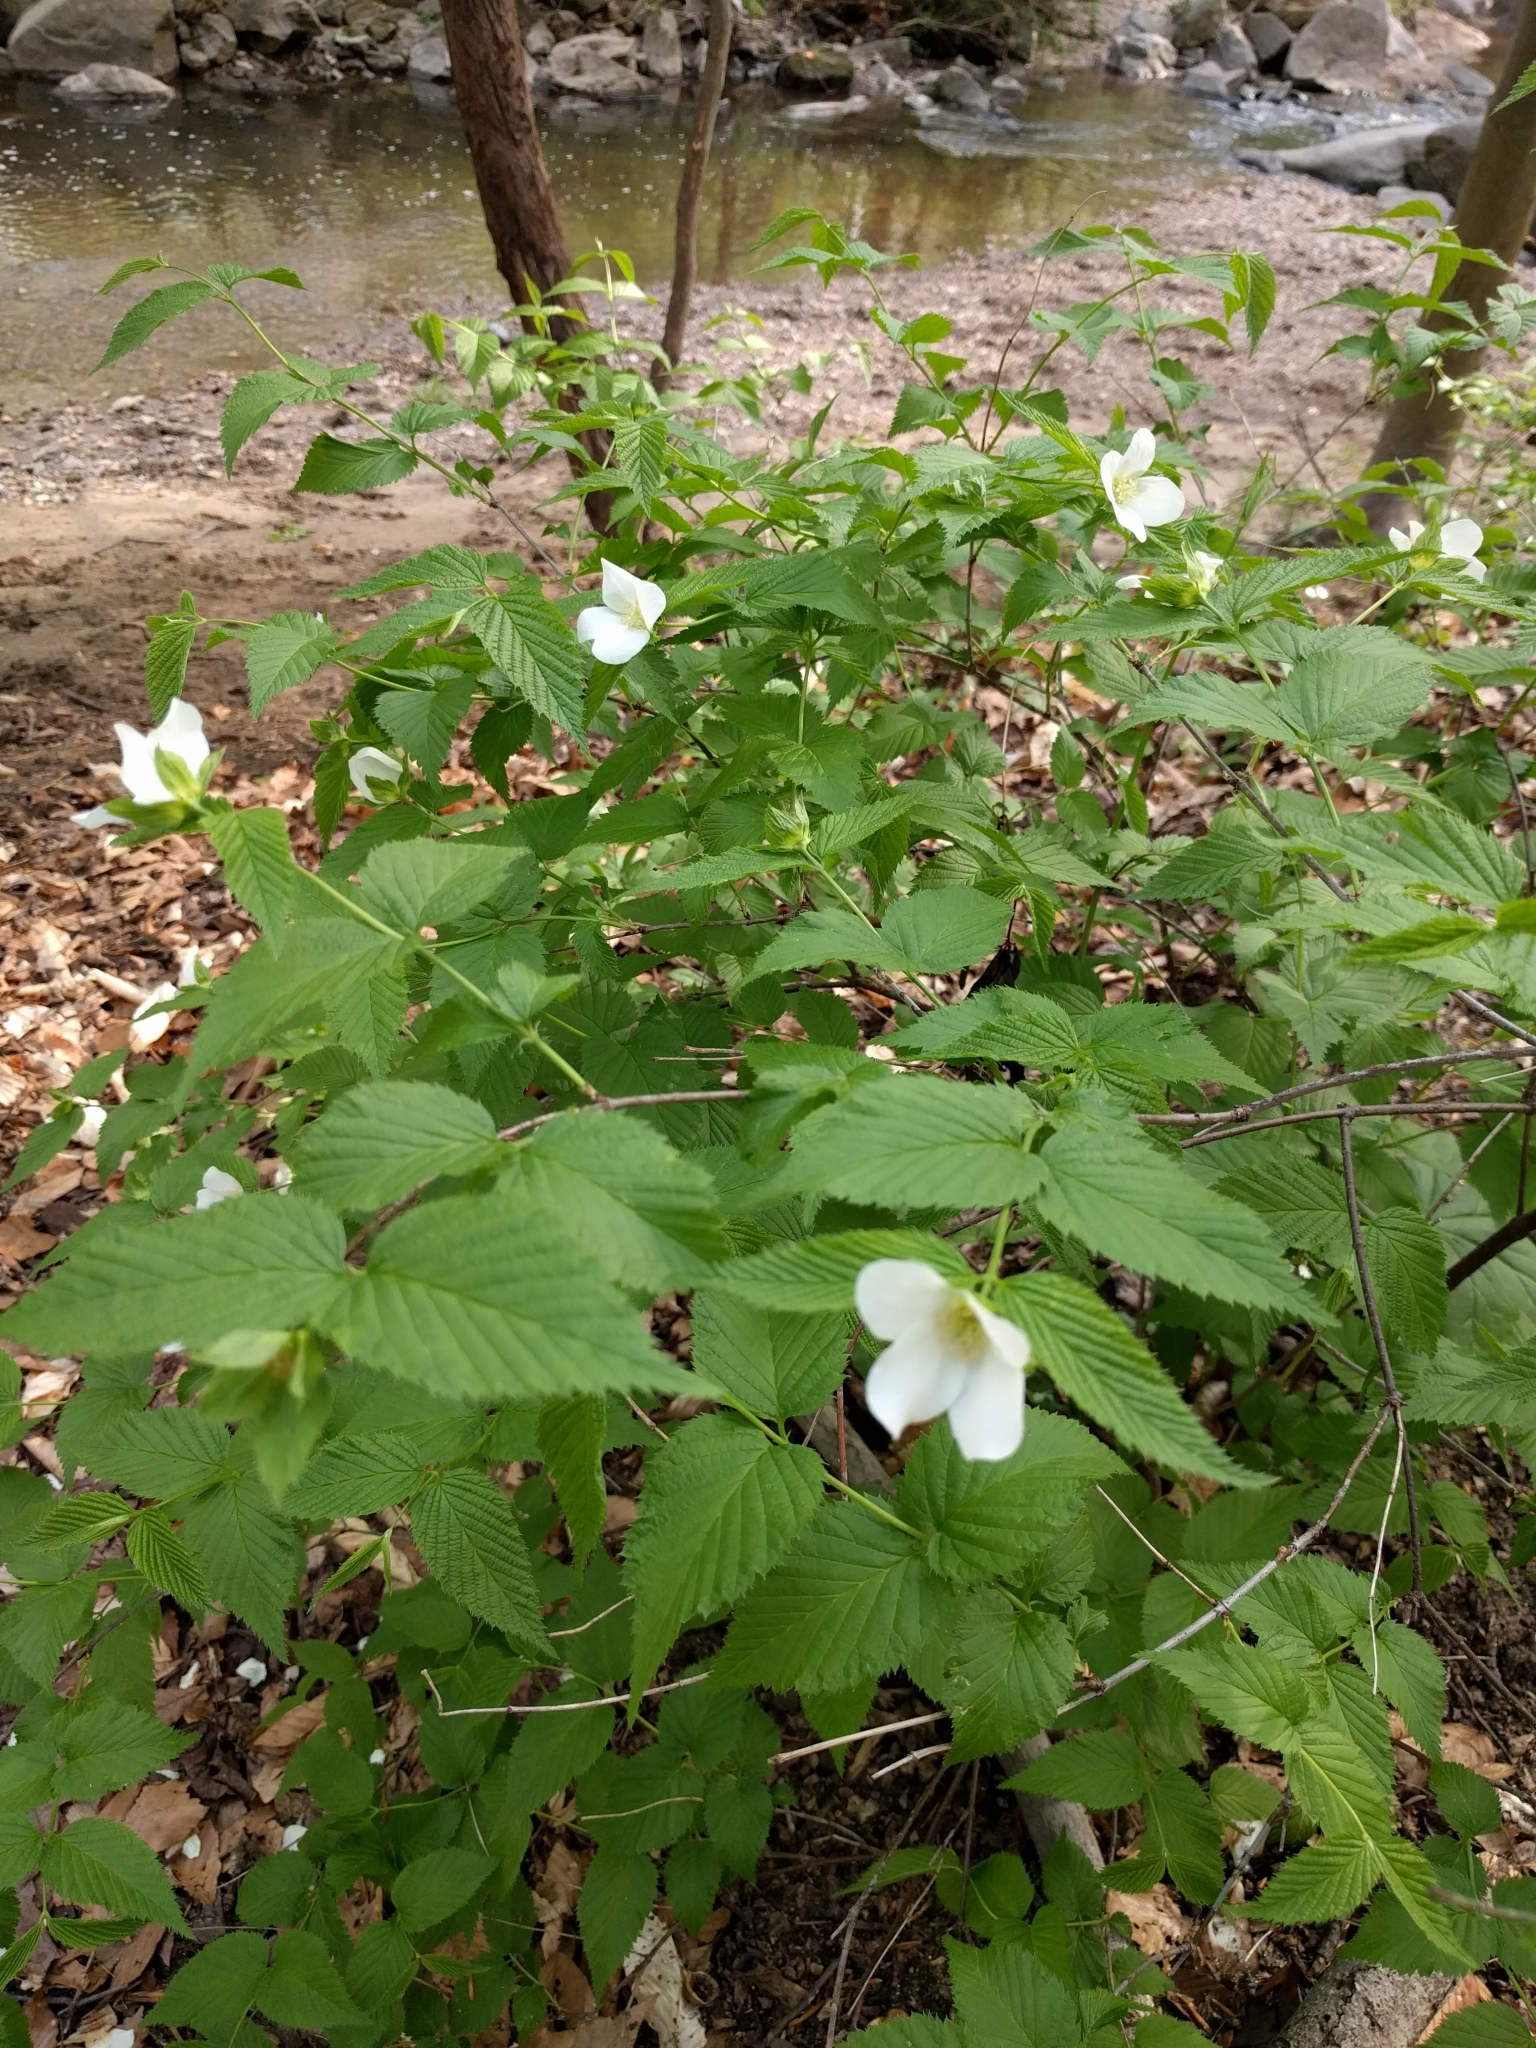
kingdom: Plantae
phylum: Tracheophyta
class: Magnoliopsida
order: Rosales
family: Rosaceae
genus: Rhodotypos
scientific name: Rhodotypos scandens
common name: Jetbead
